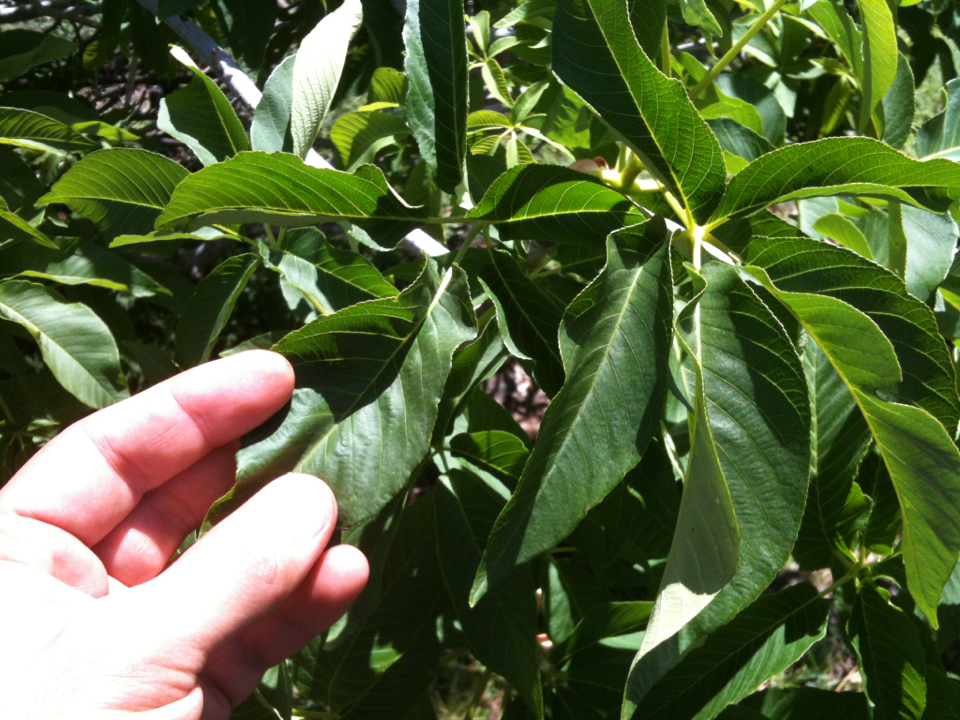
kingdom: Plantae
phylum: Tracheophyta
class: Magnoliopsida
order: Sapindales
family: Sapindaceae
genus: Aesculus
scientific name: Aesculus californica
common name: California buckeye
